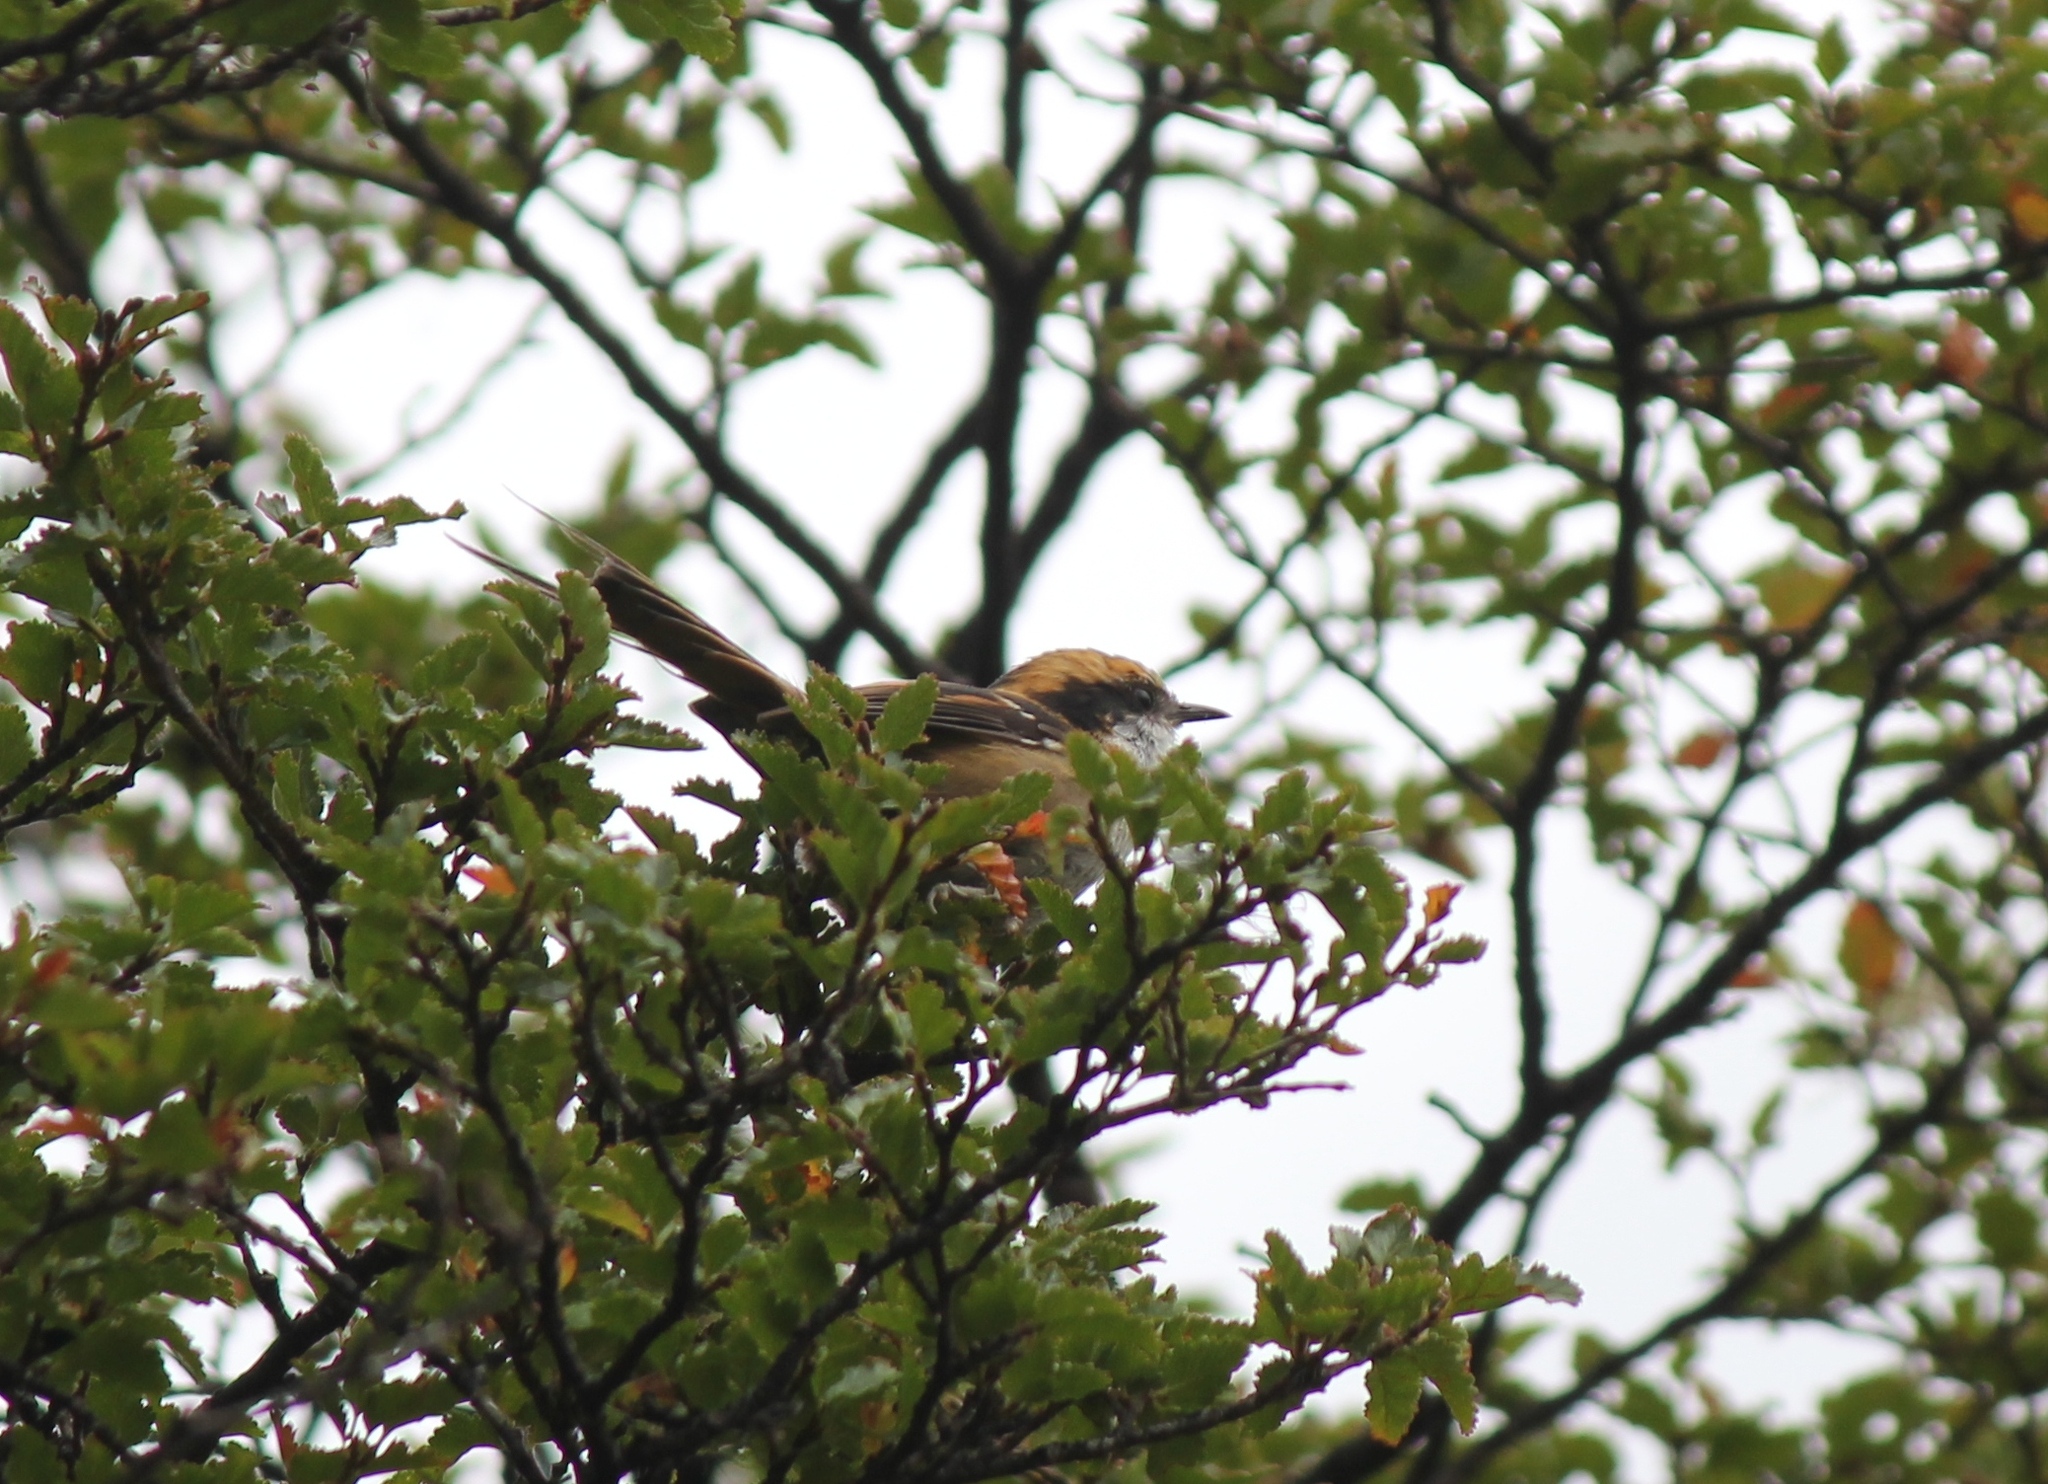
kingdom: Animalia
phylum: Chordata
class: Aves
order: Passeriformes
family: Furnariidae
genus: Aphrastura
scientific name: Aphrastura spinicauda
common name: Thorn-tailed rayadito
